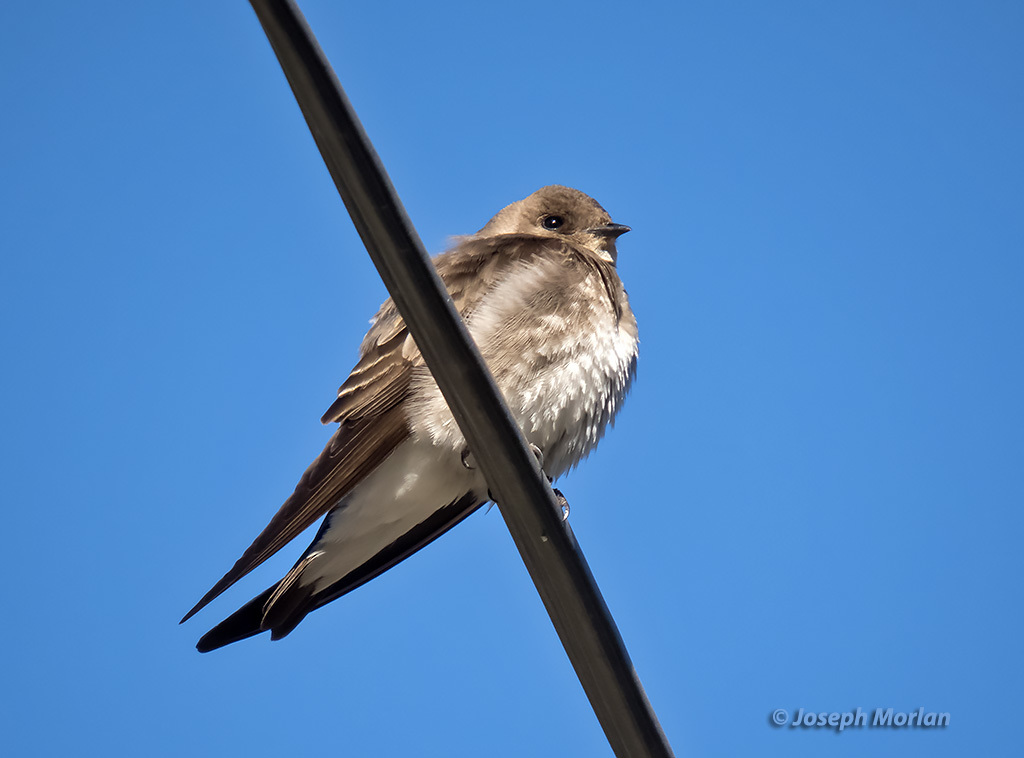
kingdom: Animalia
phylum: Chordata
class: Aves
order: Passeriformes
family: Hirundinidae
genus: Stelgidopteryx
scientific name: Stelgidopteryx serripennis
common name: Northern rough-winged swallow
